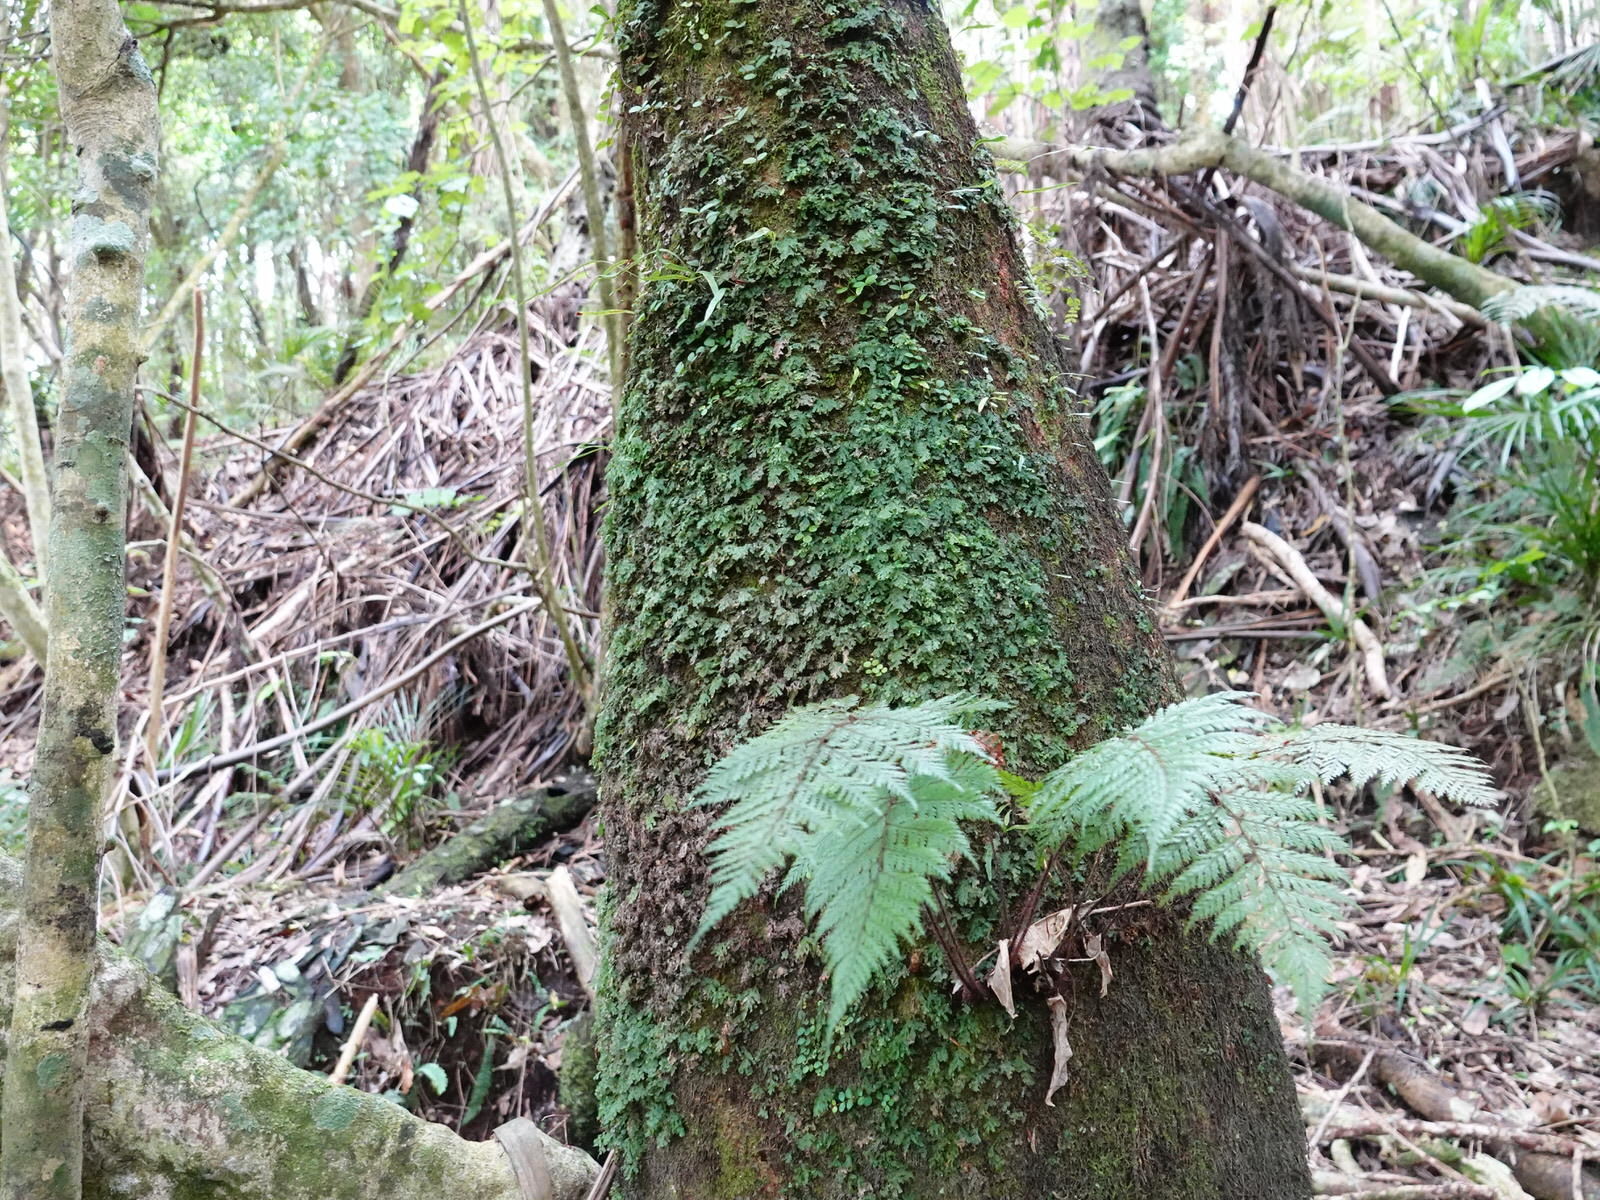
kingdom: Plantae
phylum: Tracheophyta
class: Polypodiopsida
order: Hymenophyllales
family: Hymenophyllaceae
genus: Polyphlebium
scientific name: Polyphlebium venosum
